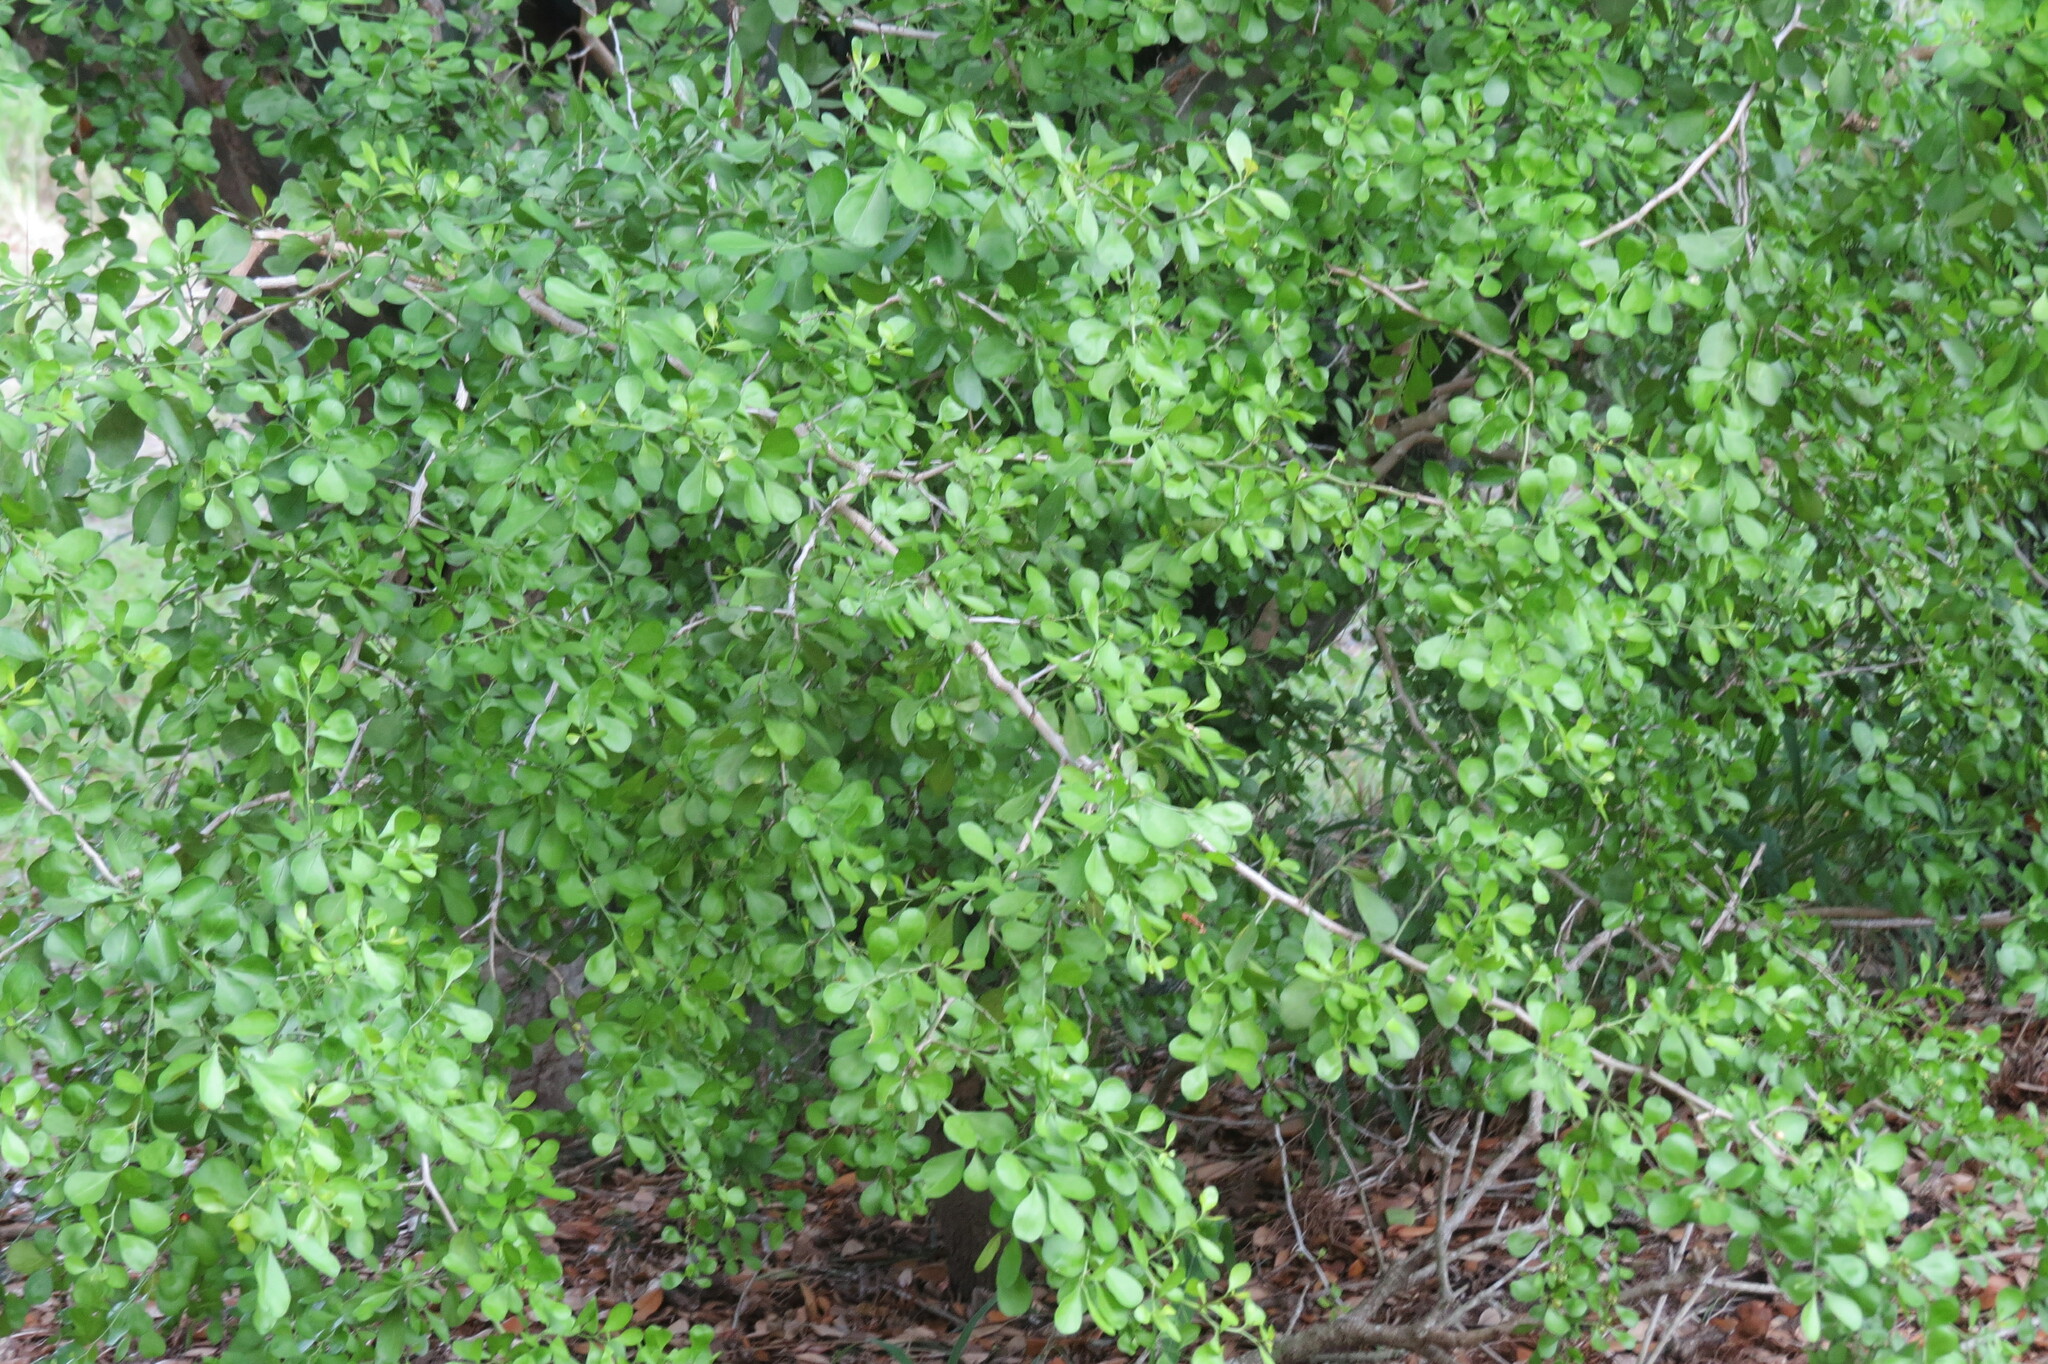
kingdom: Plantae
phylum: Tracheophyta
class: Magnoliopsida
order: Rosales
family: Rhamnaceae
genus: Condalia
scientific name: Condalia hookeri
